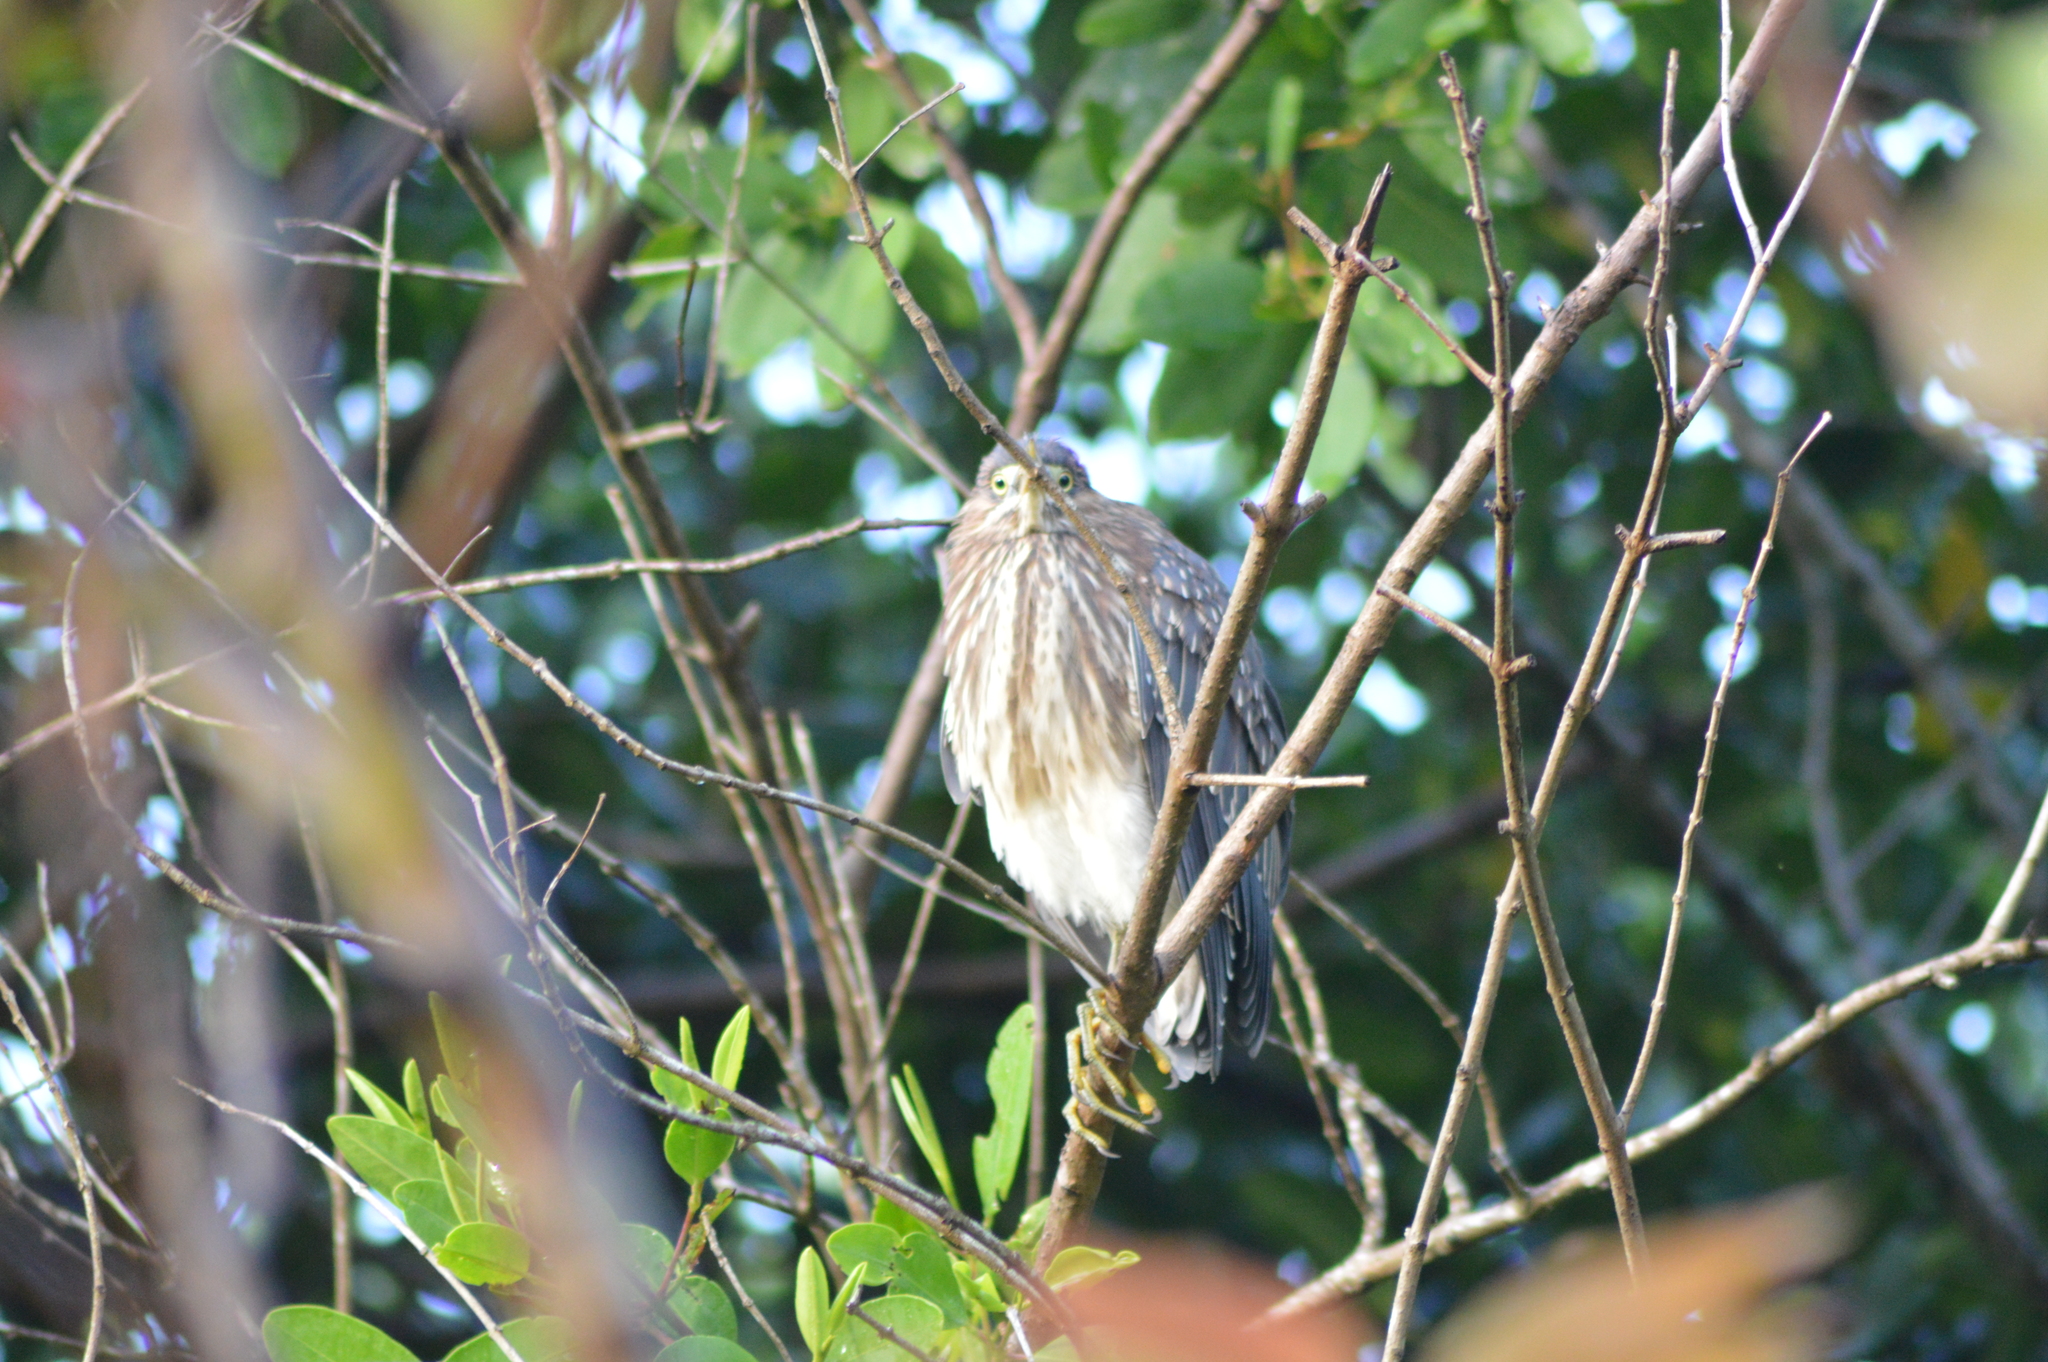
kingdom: Animalia
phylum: Chordata
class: Aves
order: Pelecaniformes
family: Ardeidae
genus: Butorides
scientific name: Butorides virescens
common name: Green heron
